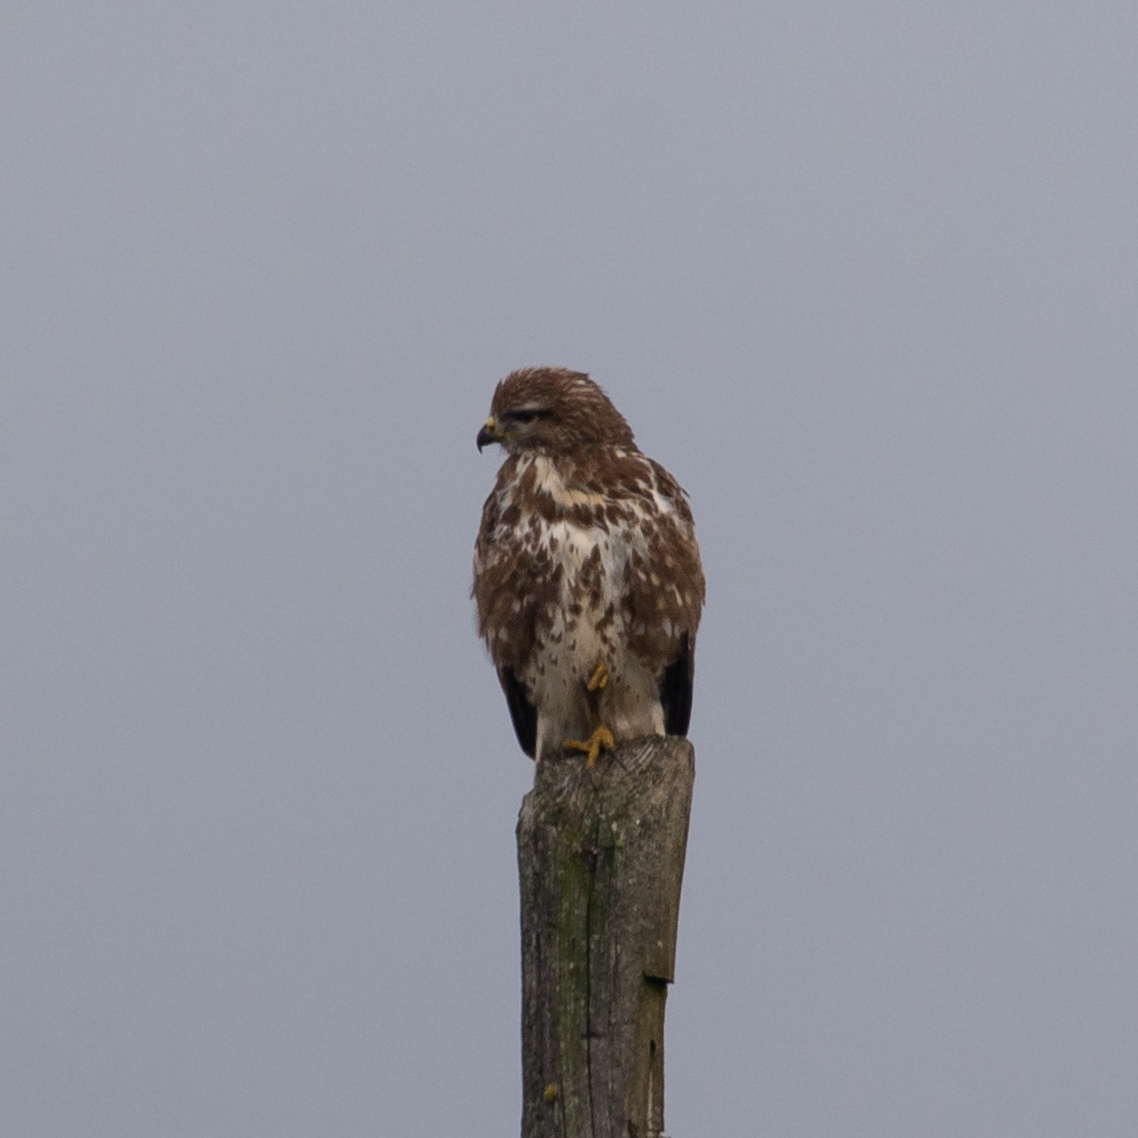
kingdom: Animalia
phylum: Chordata
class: Aves
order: Accipitriformes
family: Accipitridae
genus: Buteo
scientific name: Buteo buteo
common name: Common buzzard
